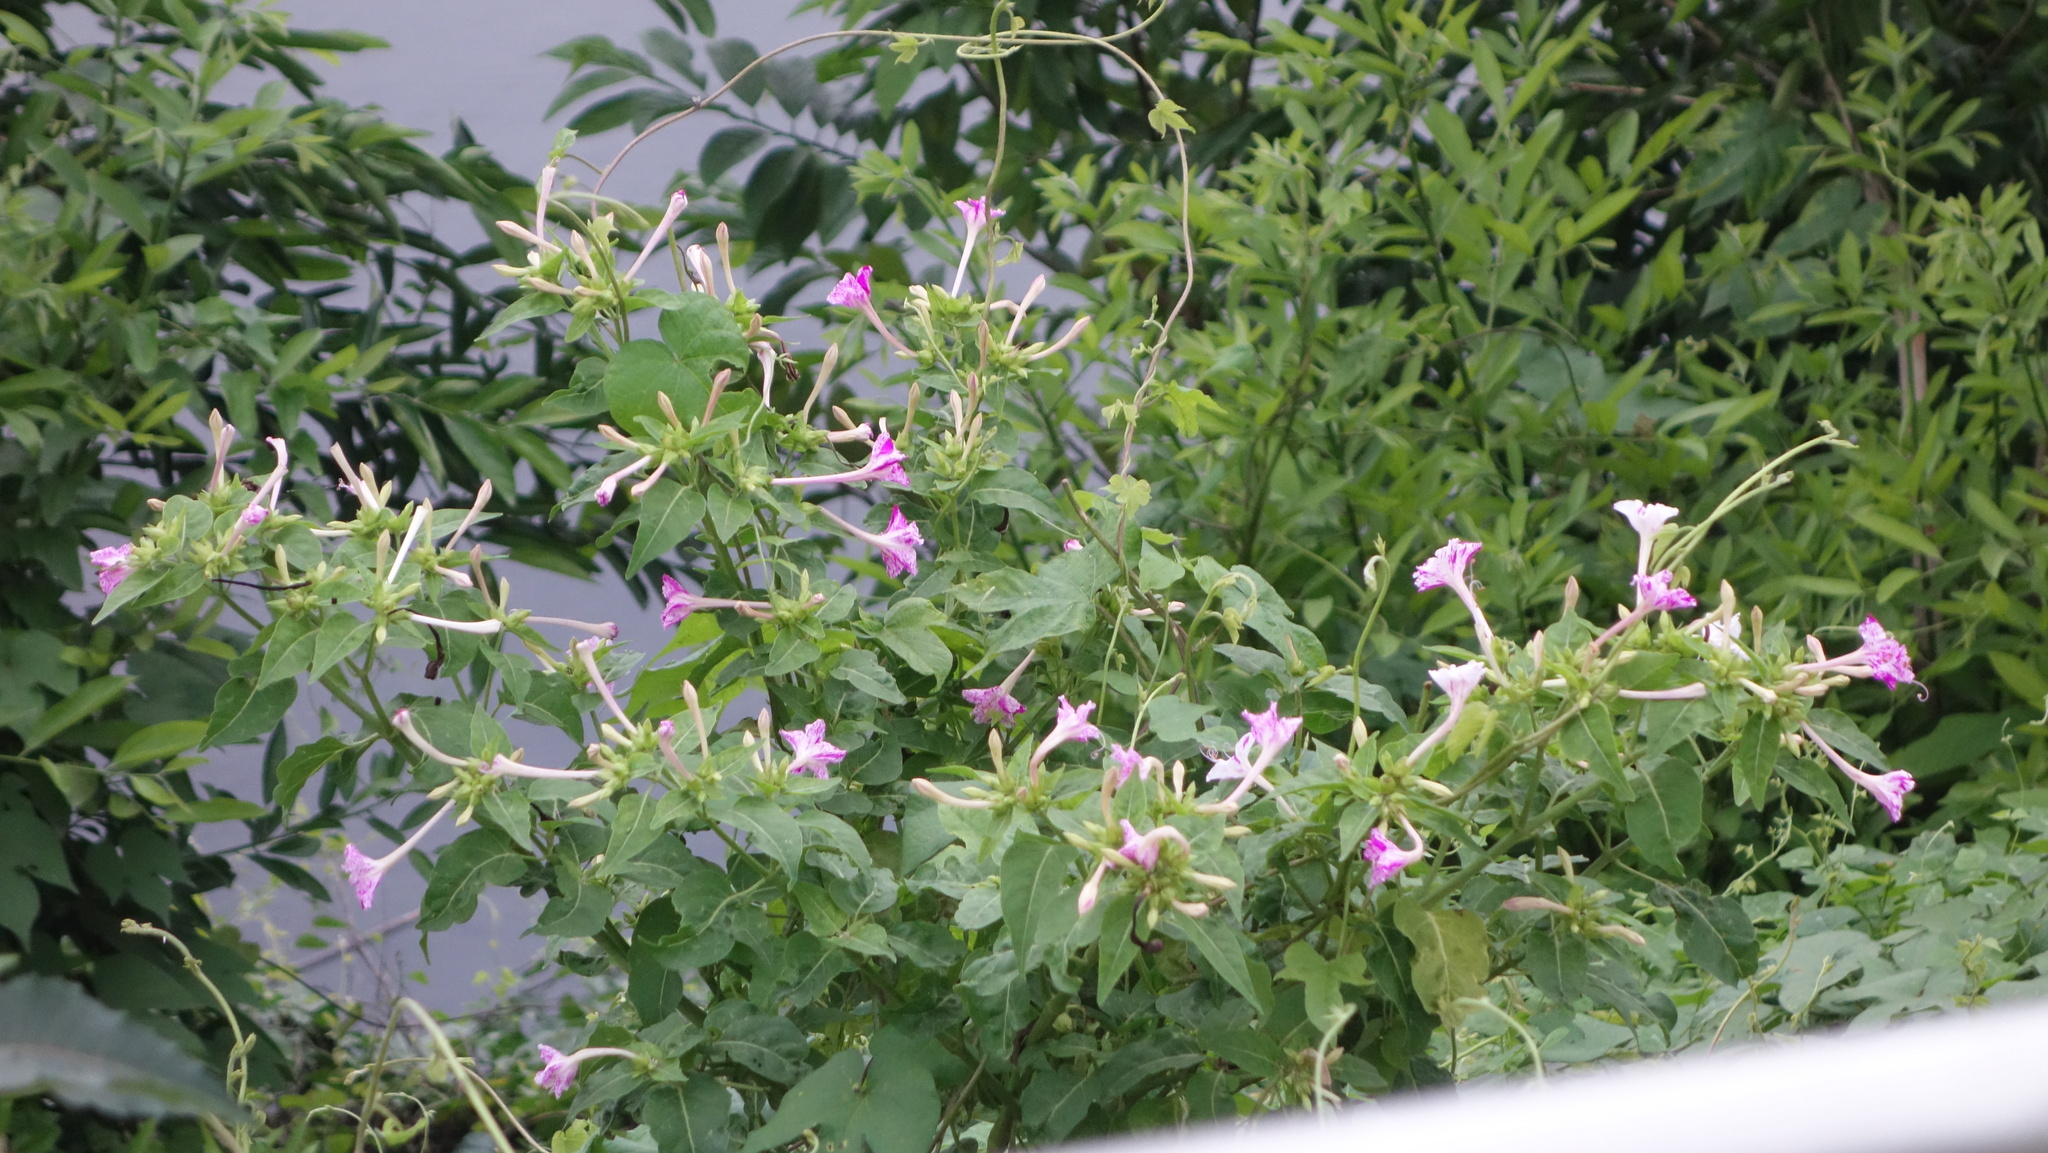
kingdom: Plantae
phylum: Tracheophyta
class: Magnoliopsida
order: Caryophyllales
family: Nyctaginaceae
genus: Mirabilis
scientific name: Mirabilis jalapa
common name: Marvel-of-peru
